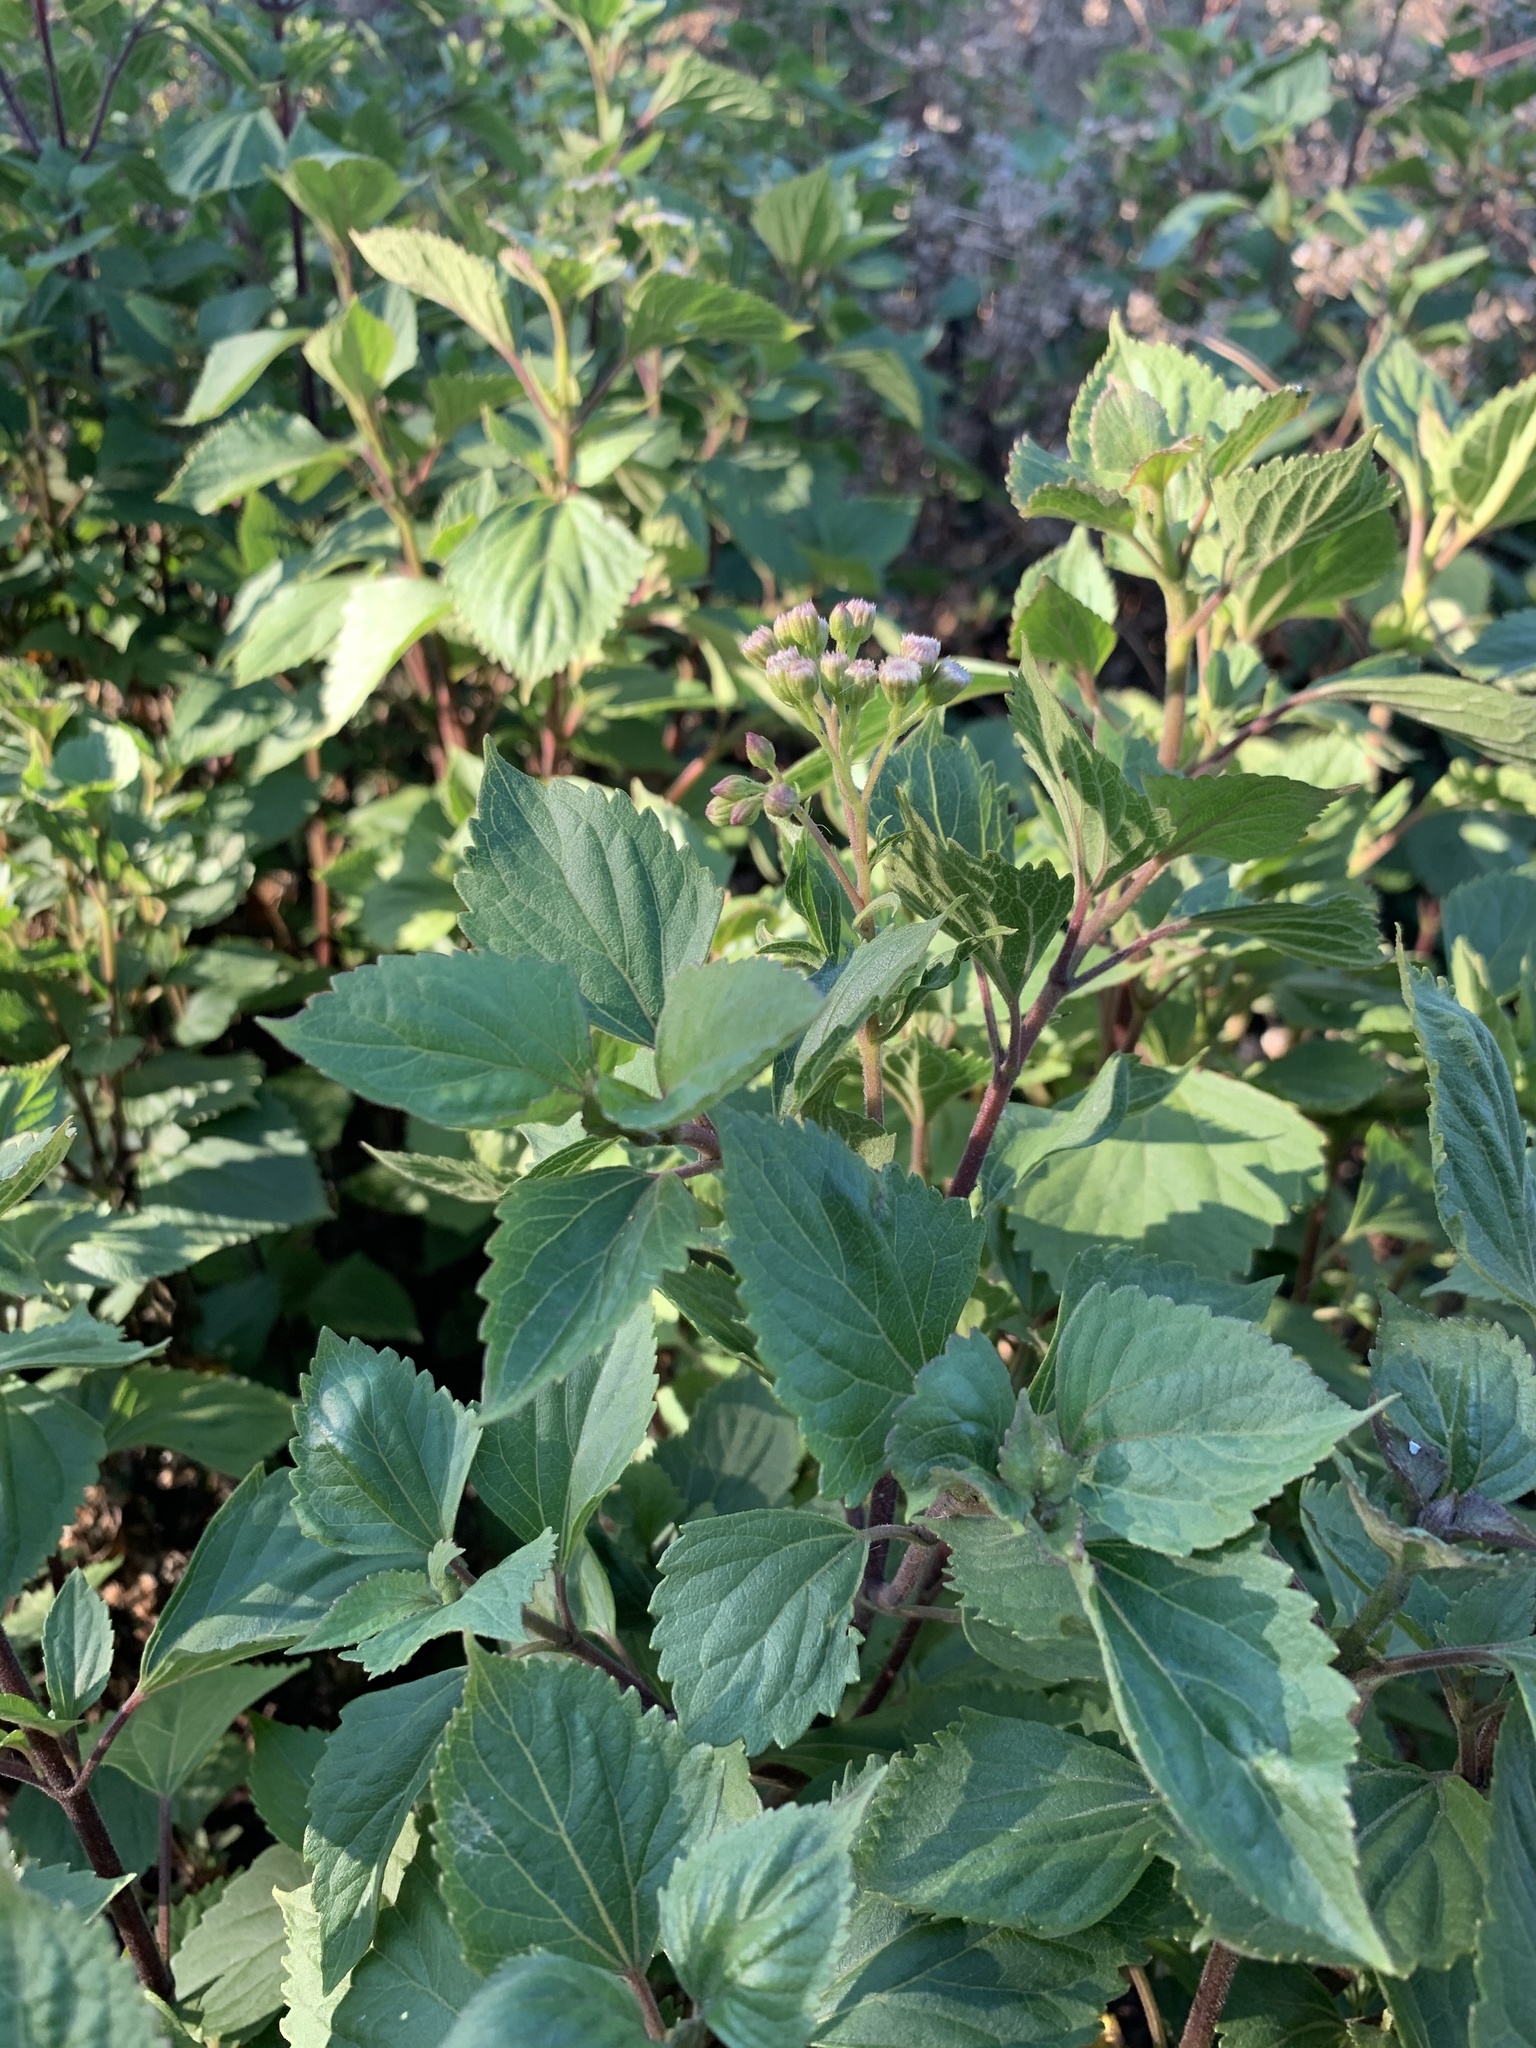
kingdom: Plantae
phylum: Tracheophyta
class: Magnoliopsida
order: Asterales
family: Asteraceae
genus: Ageratina
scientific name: Ageratina adenophora
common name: Sticky snakeroot
